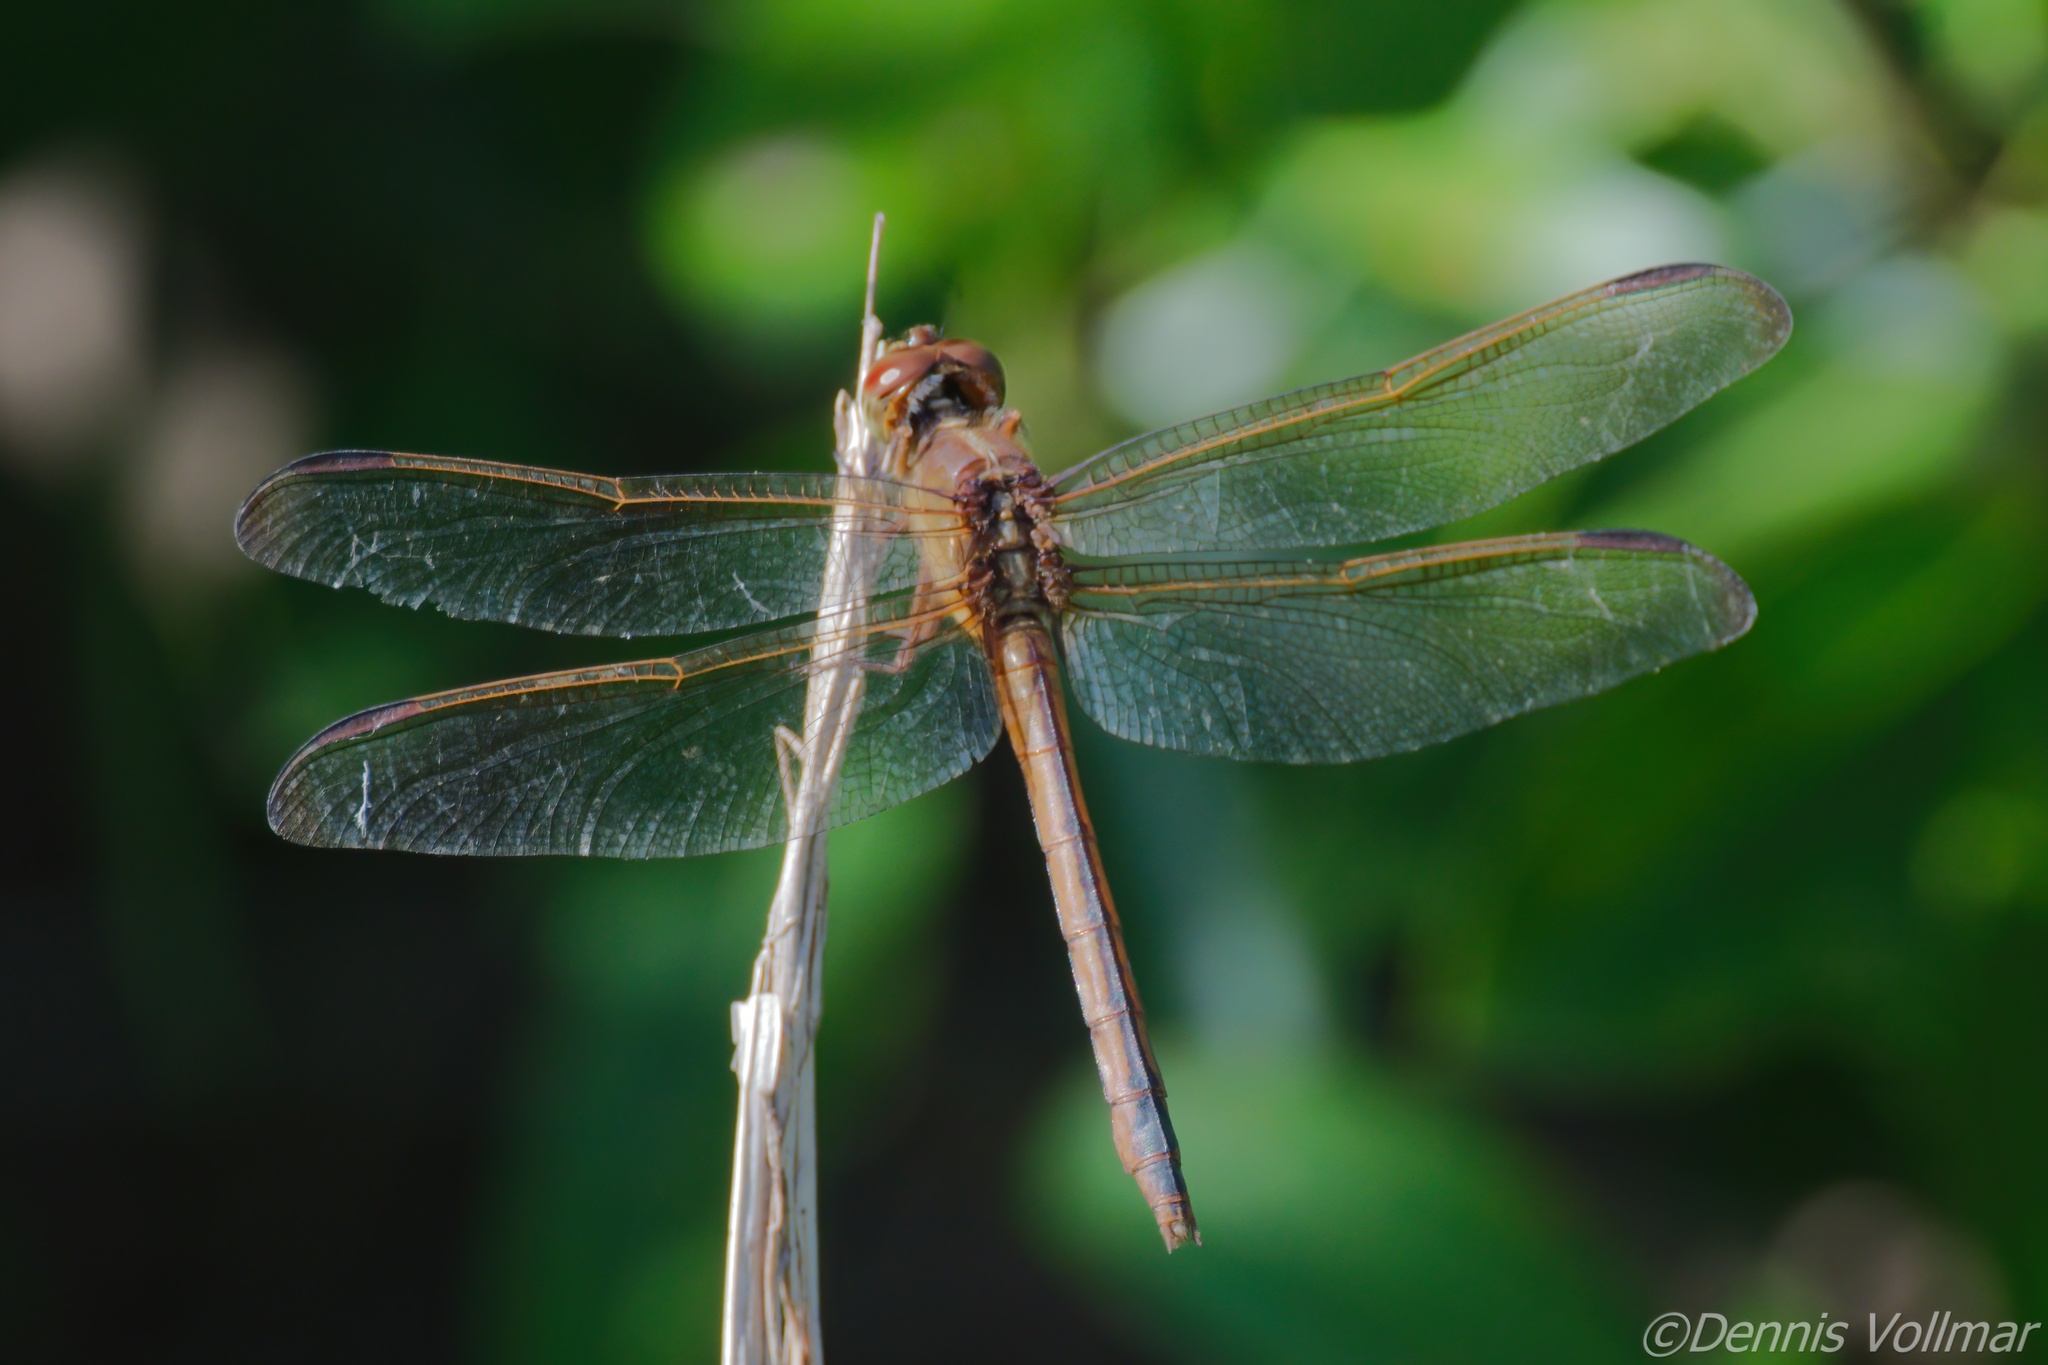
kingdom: Animalia
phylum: Arthropoda
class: Insecta
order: Odonata
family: Libellulidae
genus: Libellula
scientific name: Libellula needhami
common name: Needham's skimmer
